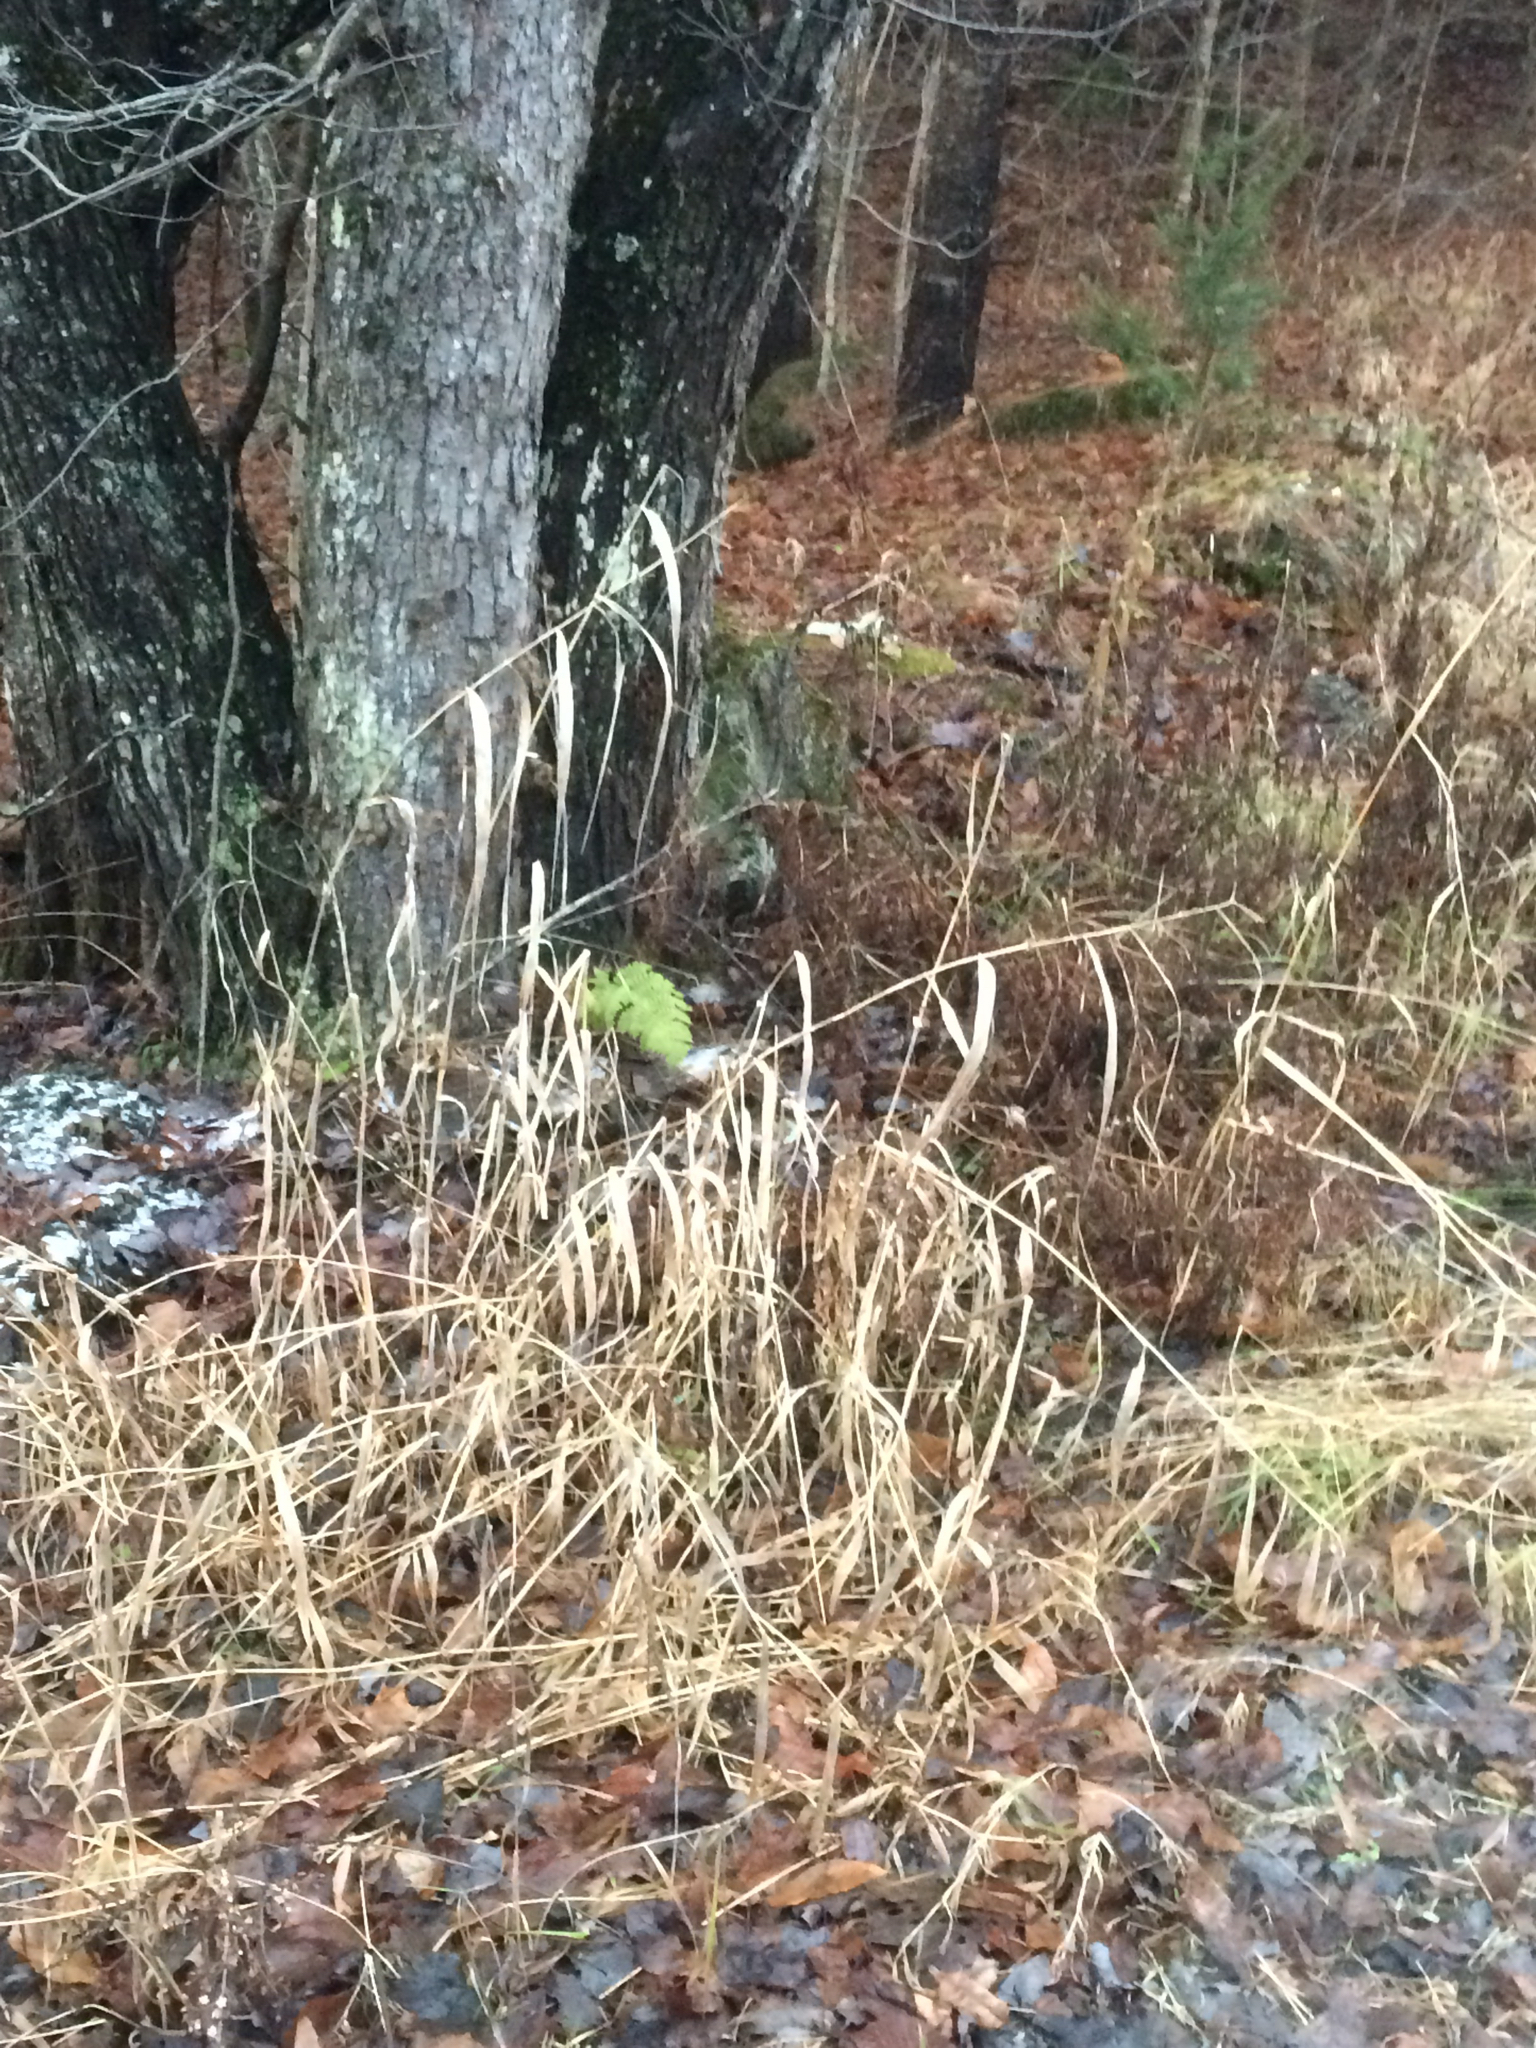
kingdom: Plantae
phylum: Tracheophyta
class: Liliopsida
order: Poales
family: Poaceae
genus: Phalaris
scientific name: Phalaris arundinacea
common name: Reed canary-grass
